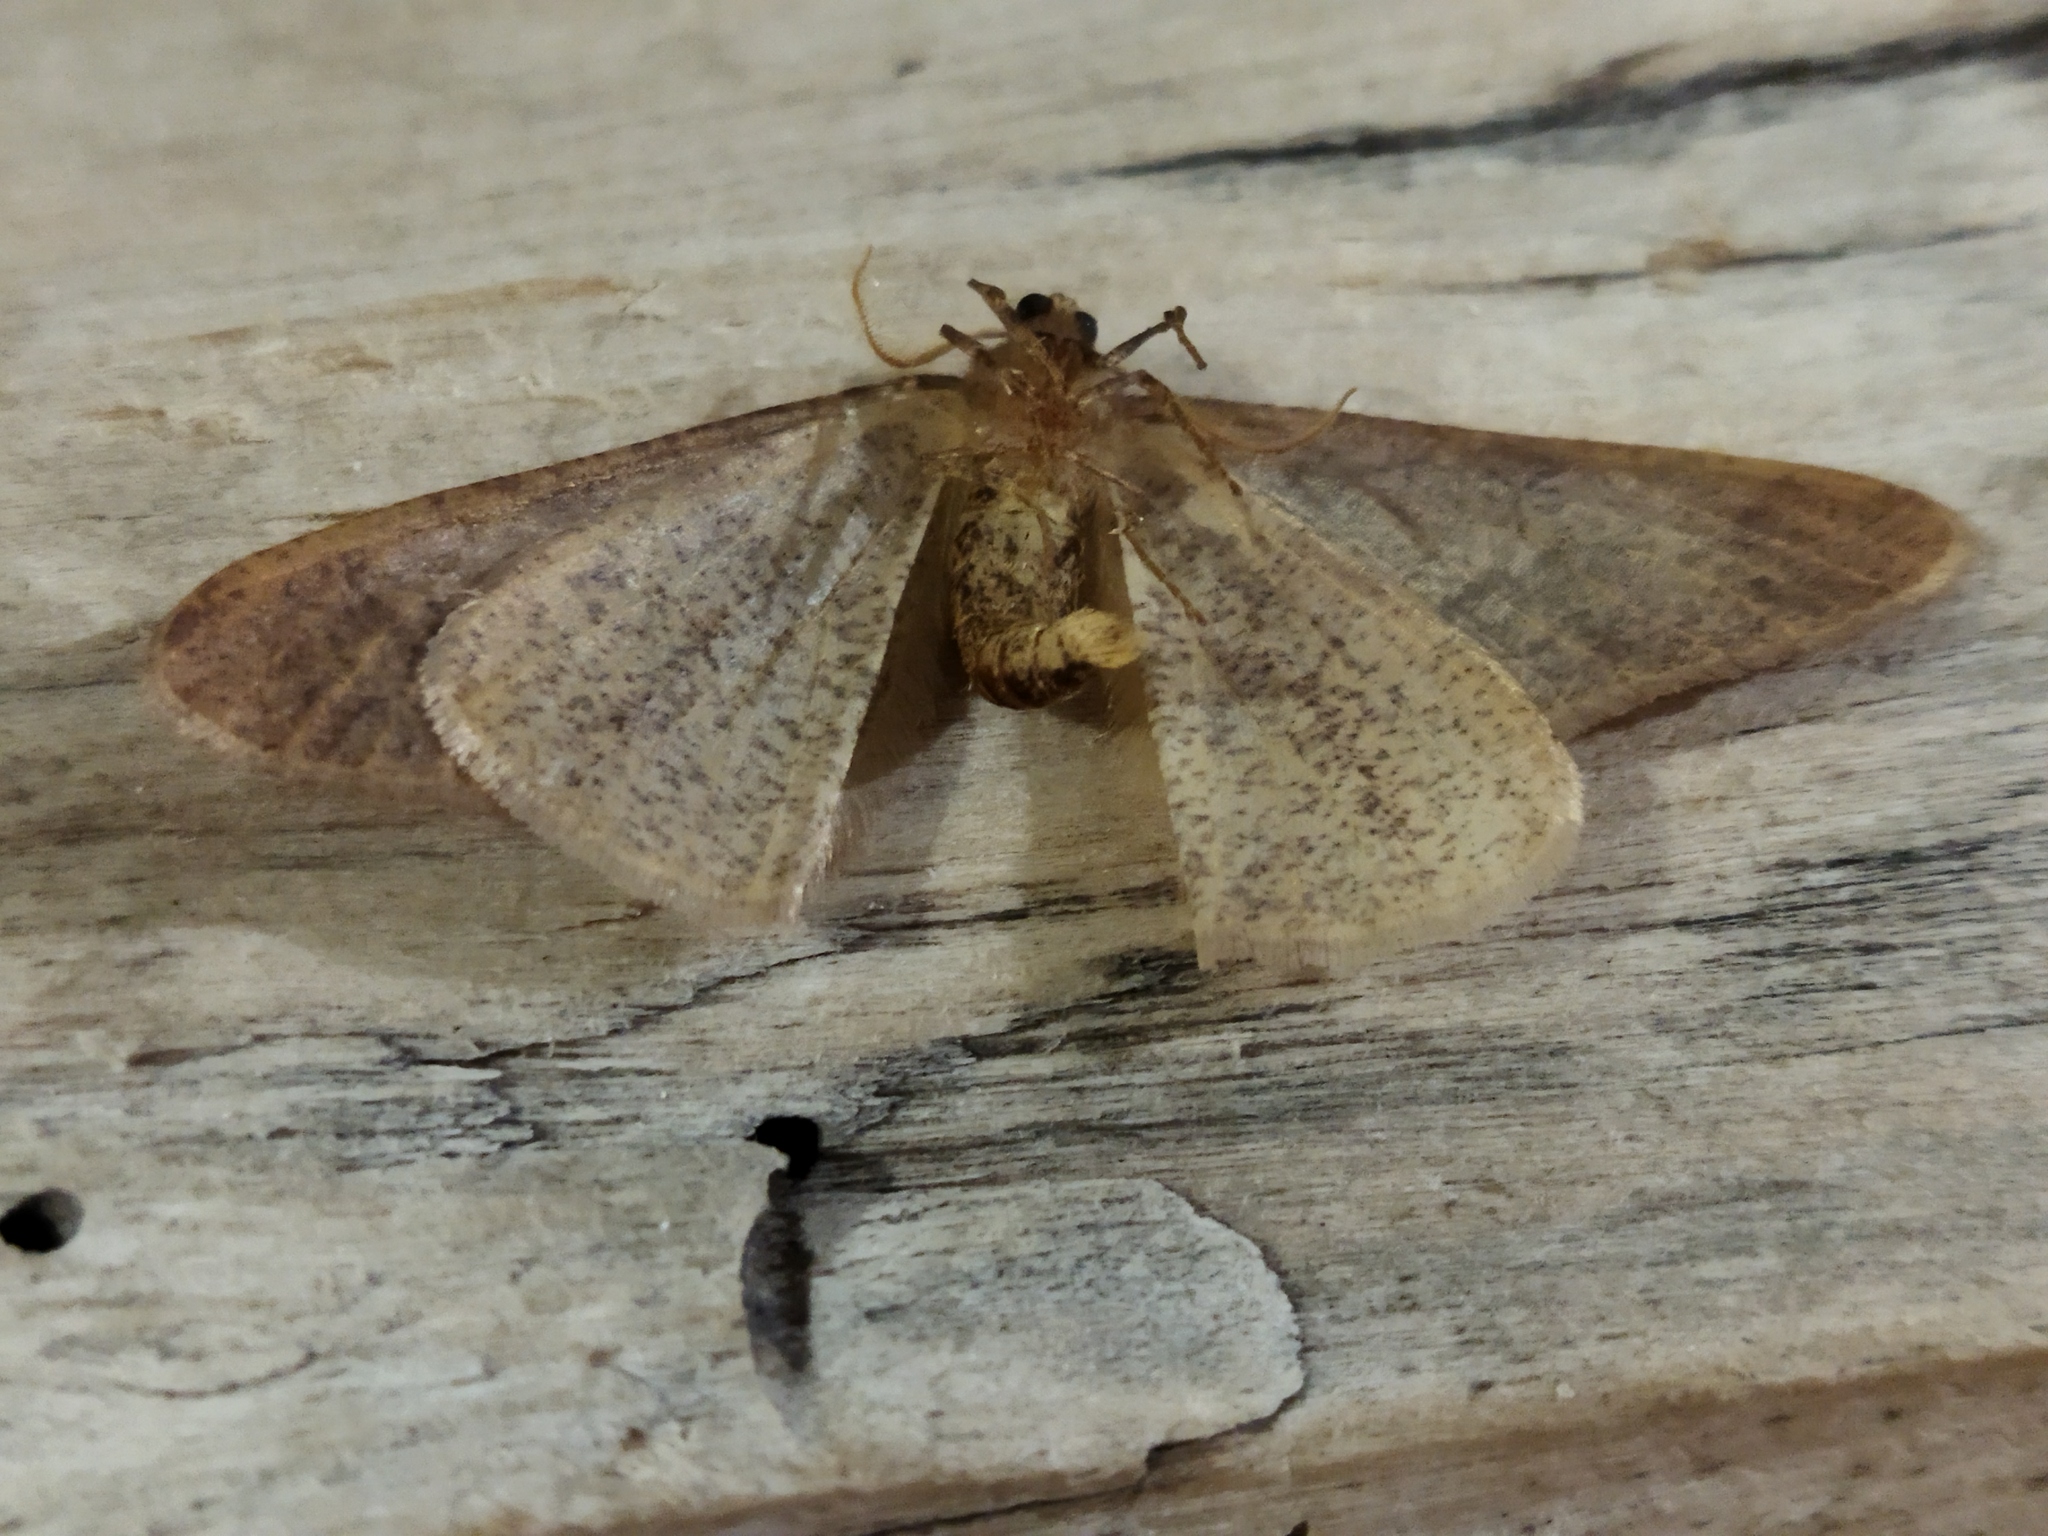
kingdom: Animalia
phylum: Arthropoda
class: Insecta
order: Lepidoptera
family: Geometridae
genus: Erannis
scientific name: Erannis defoliaria
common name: Mottled umber
